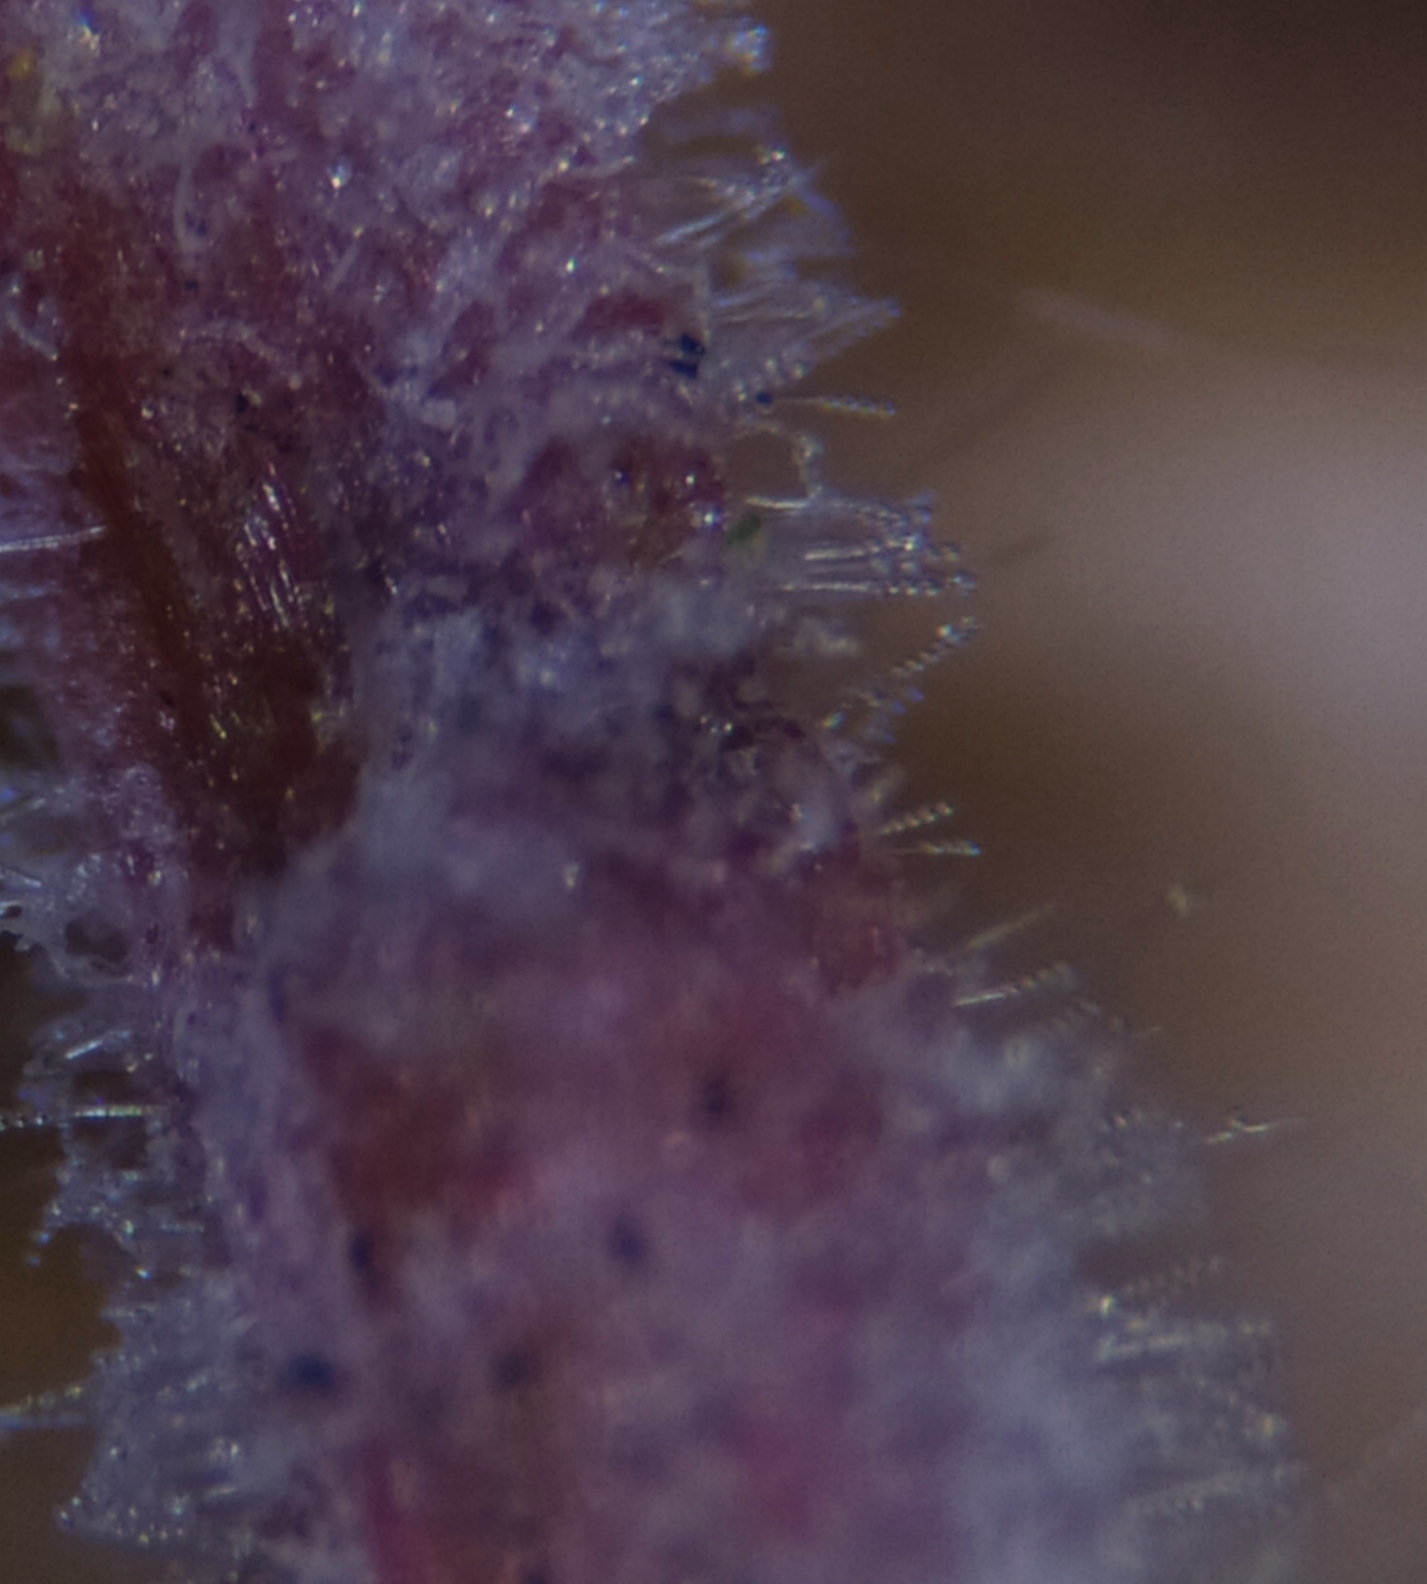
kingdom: Fungi
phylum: Ascomycota
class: Leotiomycetes
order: Helotiales
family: Erysiphaceae
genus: Podosphaera
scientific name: Podosphaera fugax
